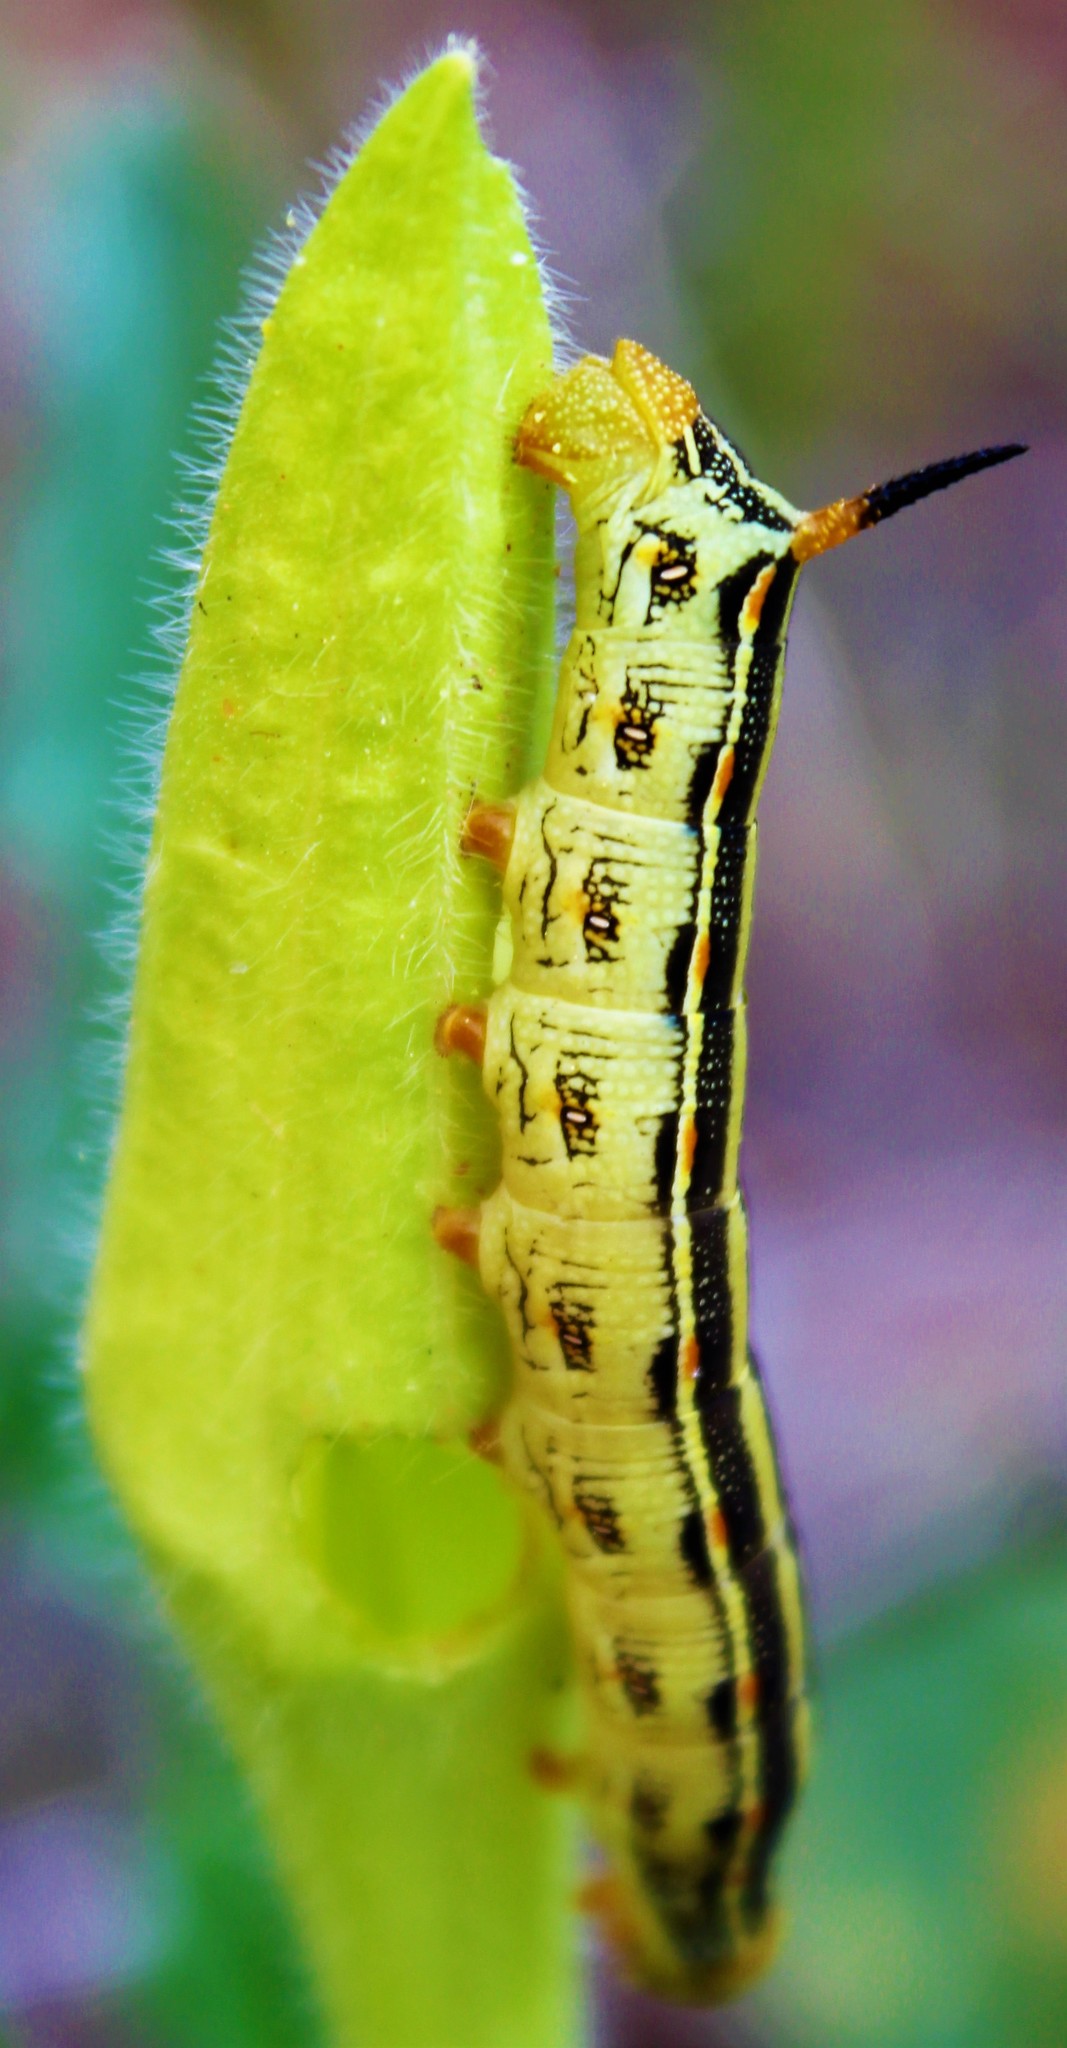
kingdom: Animalia
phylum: Arthropoda
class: Insecta
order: Lepidoptera
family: Sphingidae
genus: Hyles
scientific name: Hyles lineata
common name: White-lined sphinx
